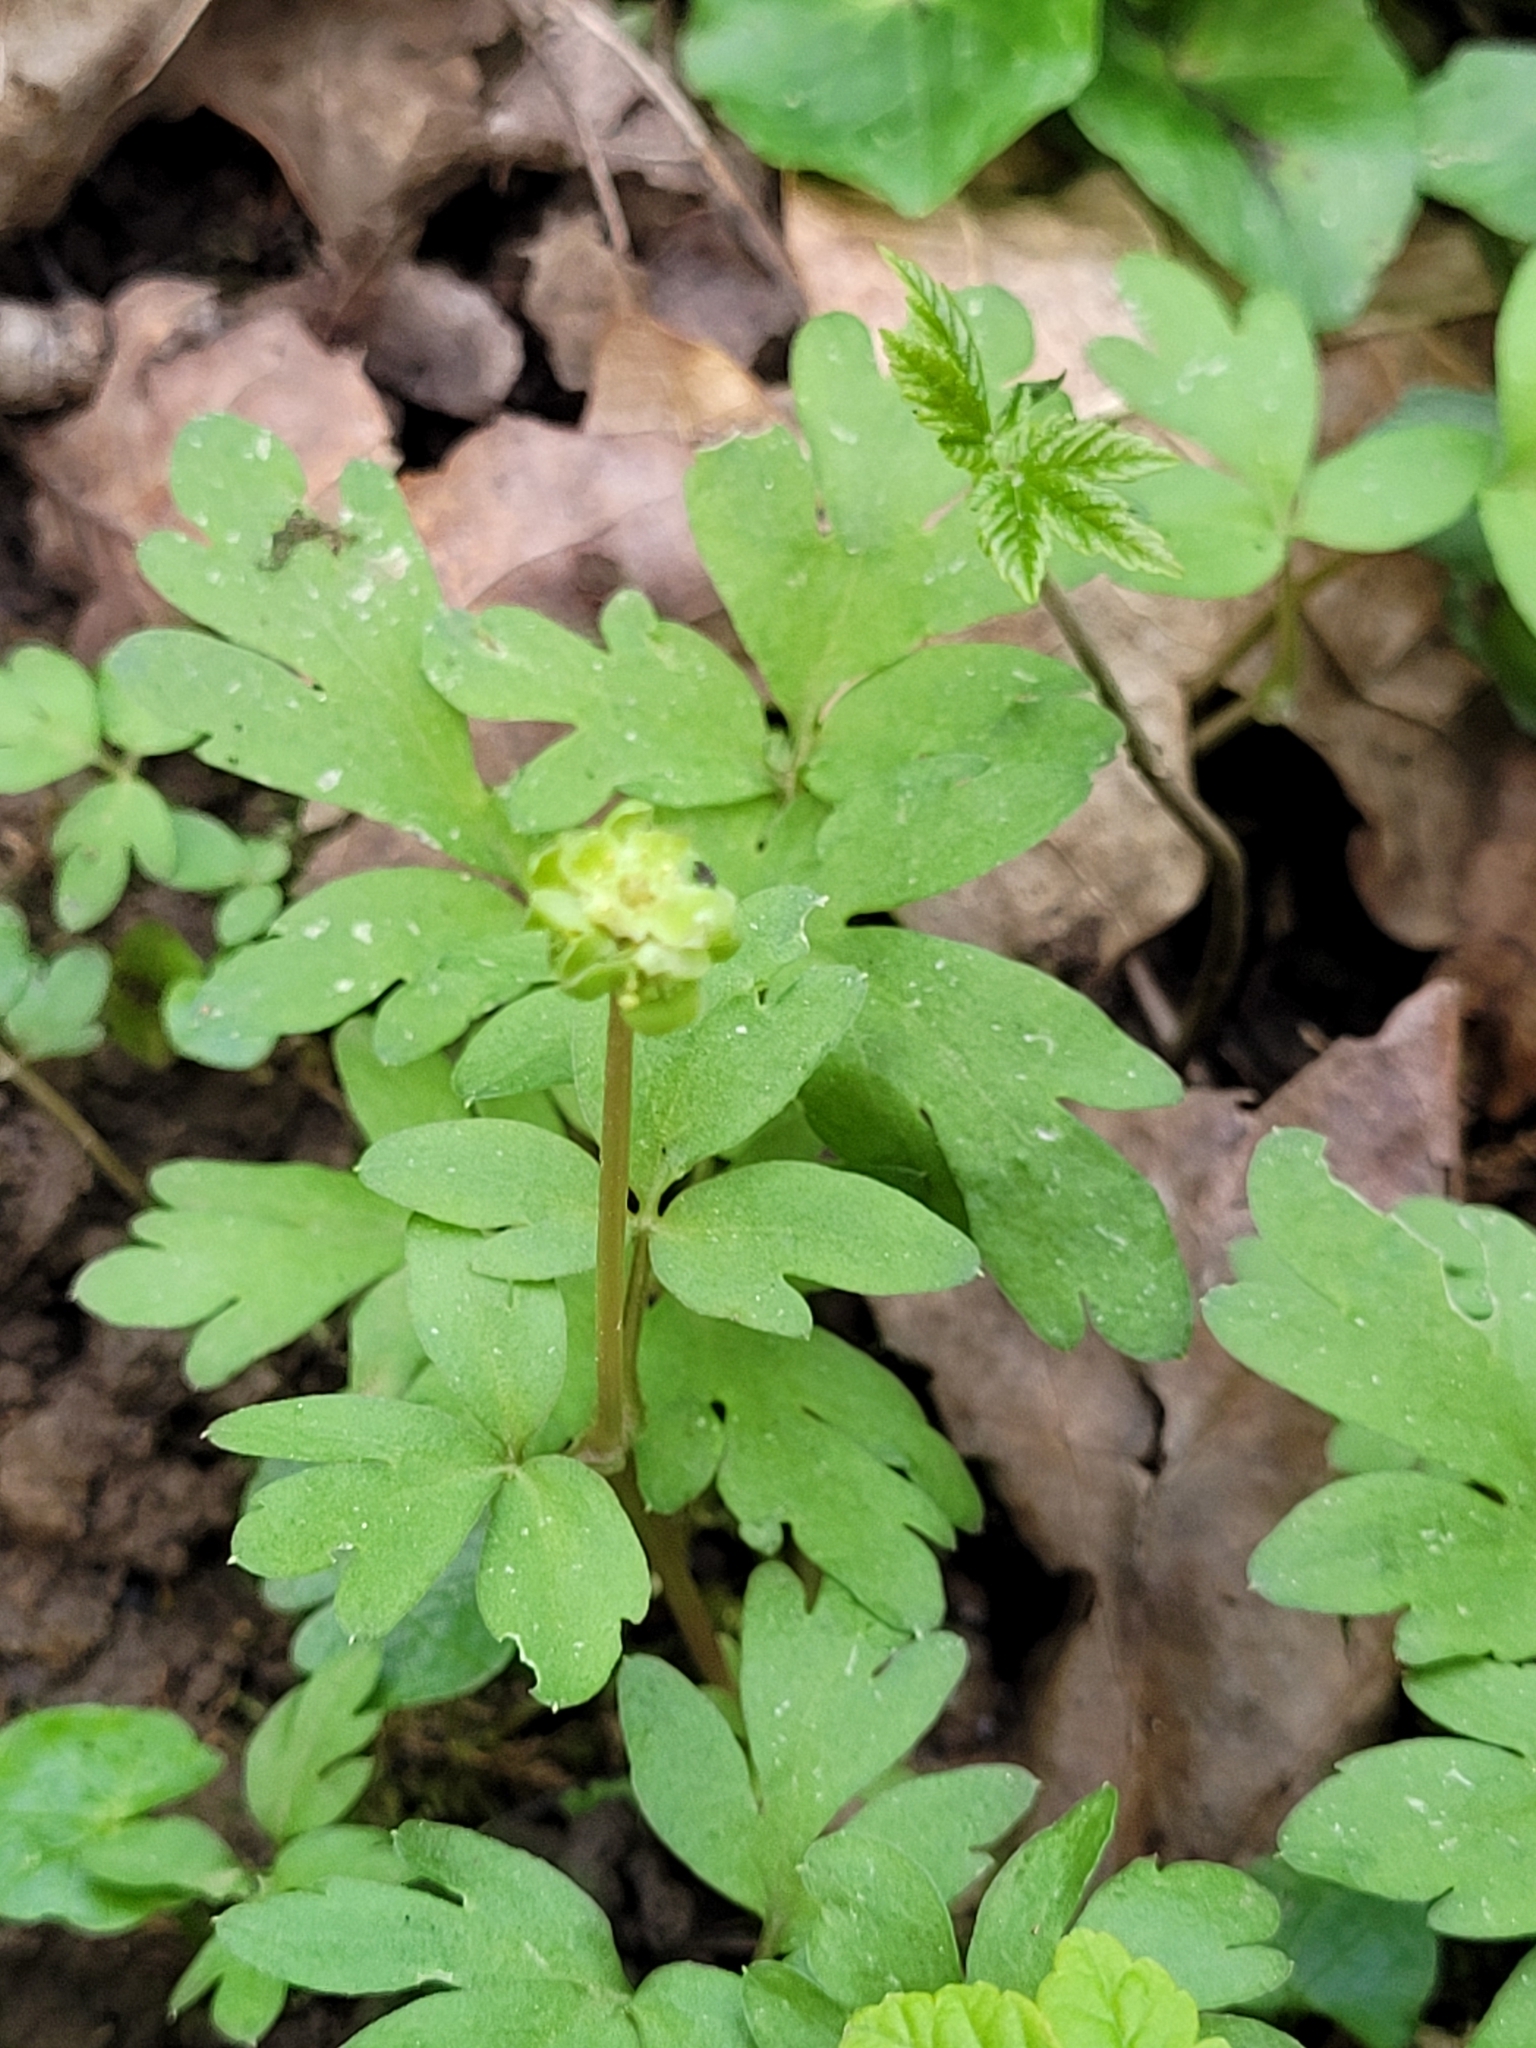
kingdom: Plantae
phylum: Tracheophyta
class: Magnoliopsida
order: Dipsacales
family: Viburnaceae
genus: Adoxa
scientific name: Adoxa moschatellina
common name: Moschatel
